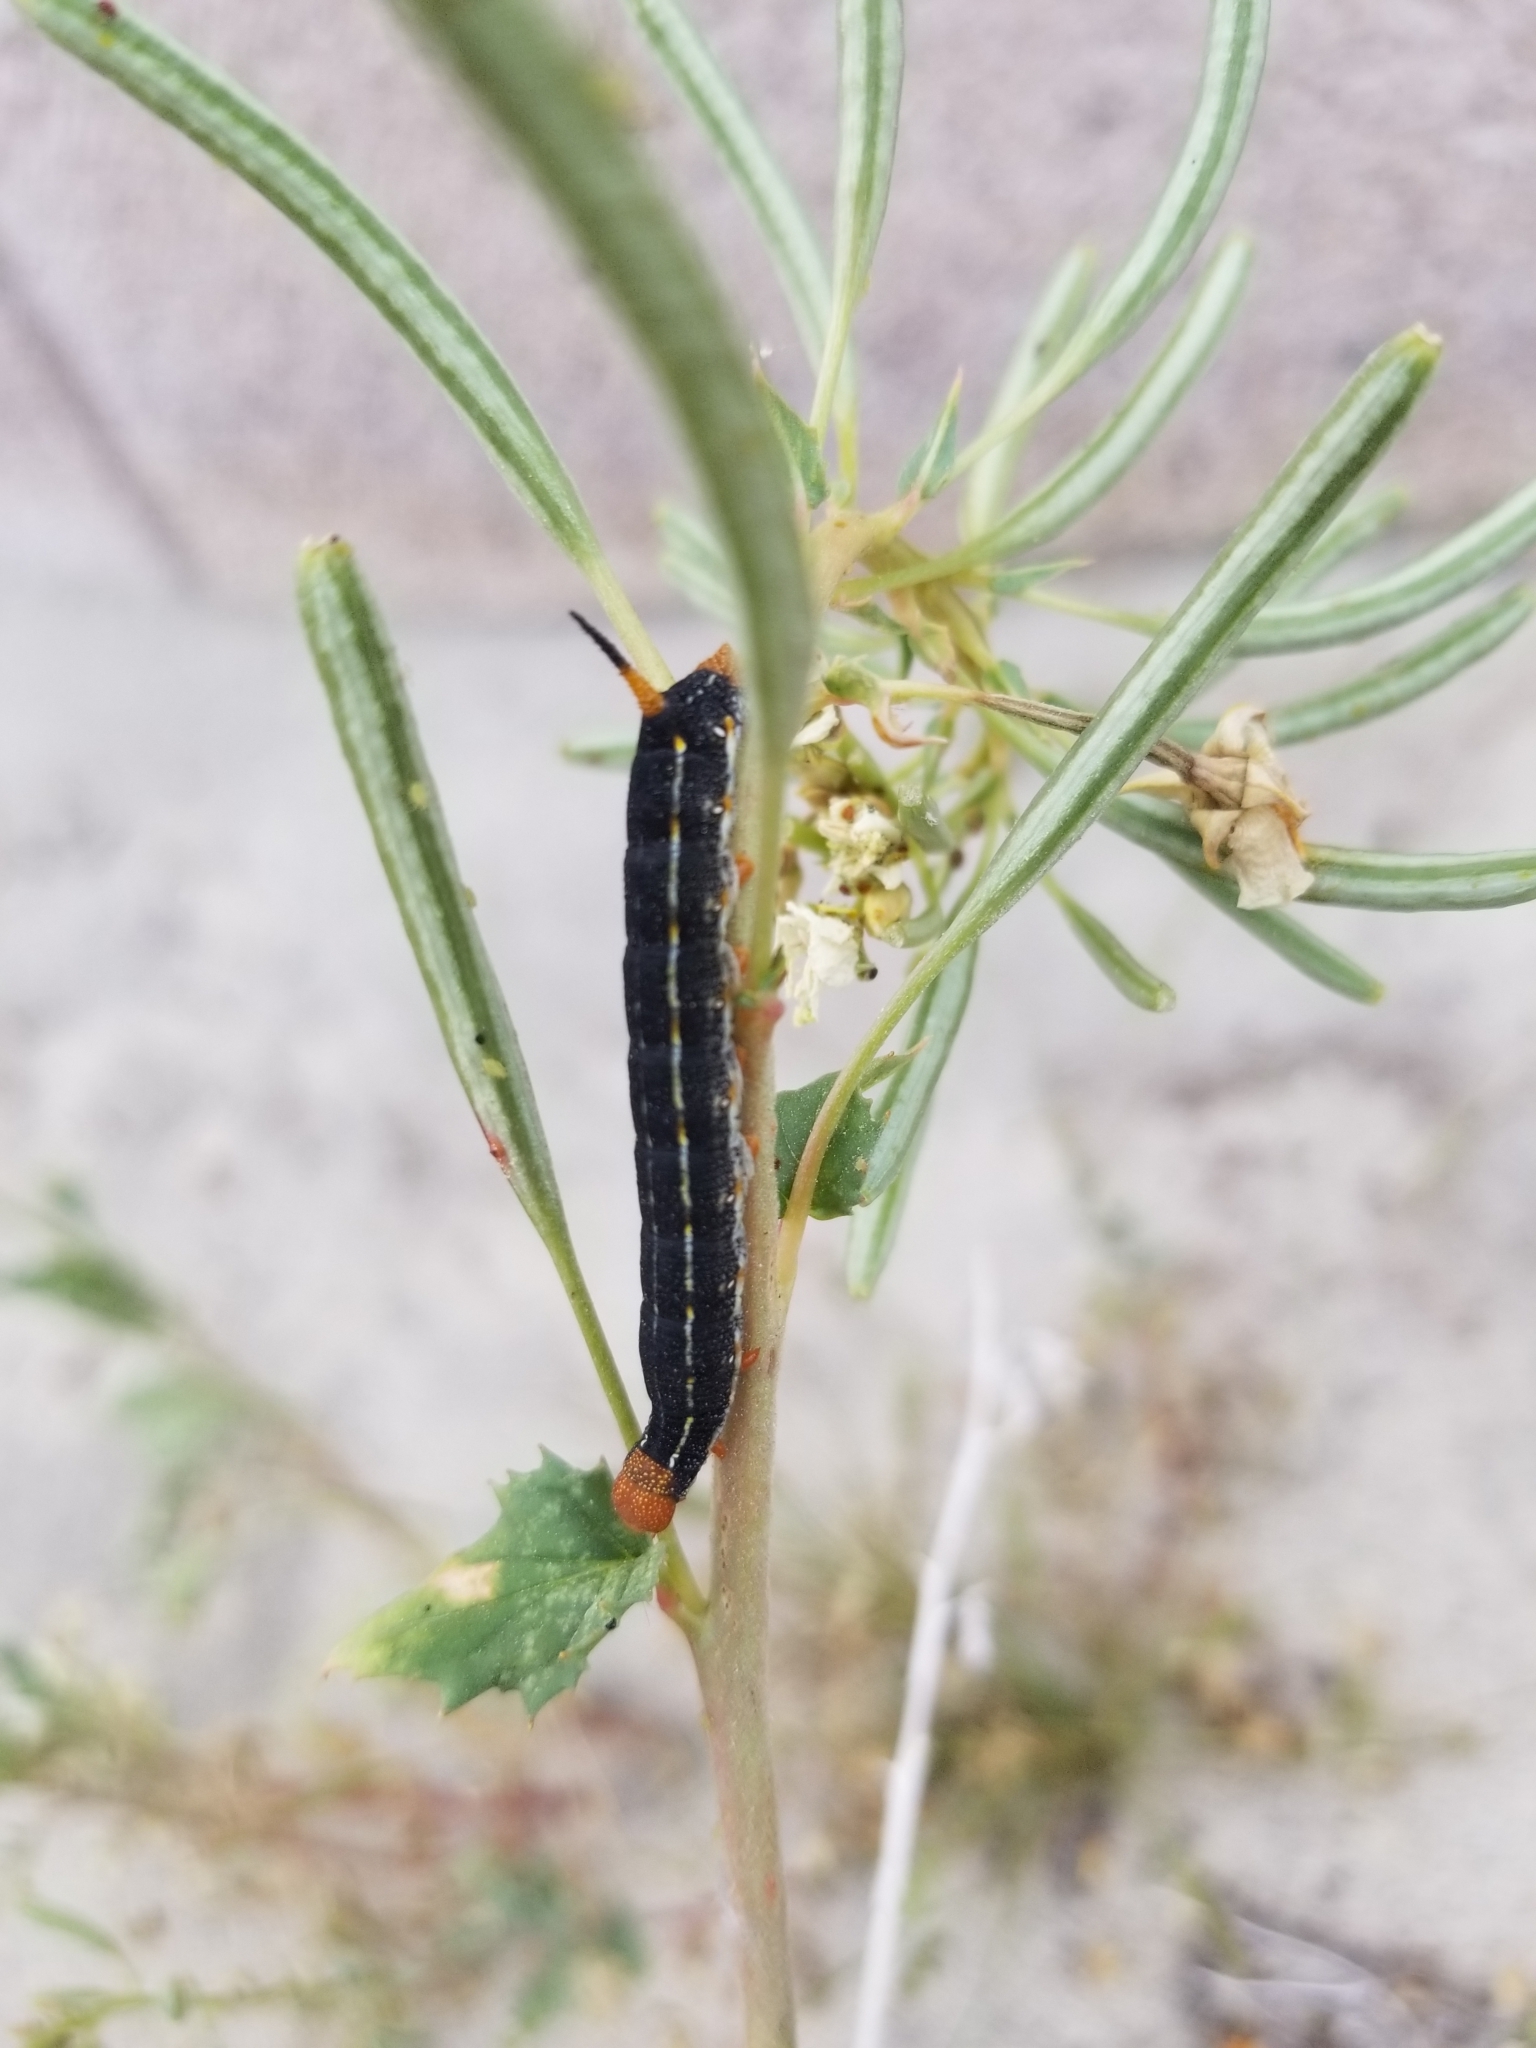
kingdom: Animalia
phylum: Arthropoda
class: Insecta
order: Lepidoptera
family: Sphingidae
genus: Hyles
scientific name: Hyles lineata
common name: White-lined sphinx
